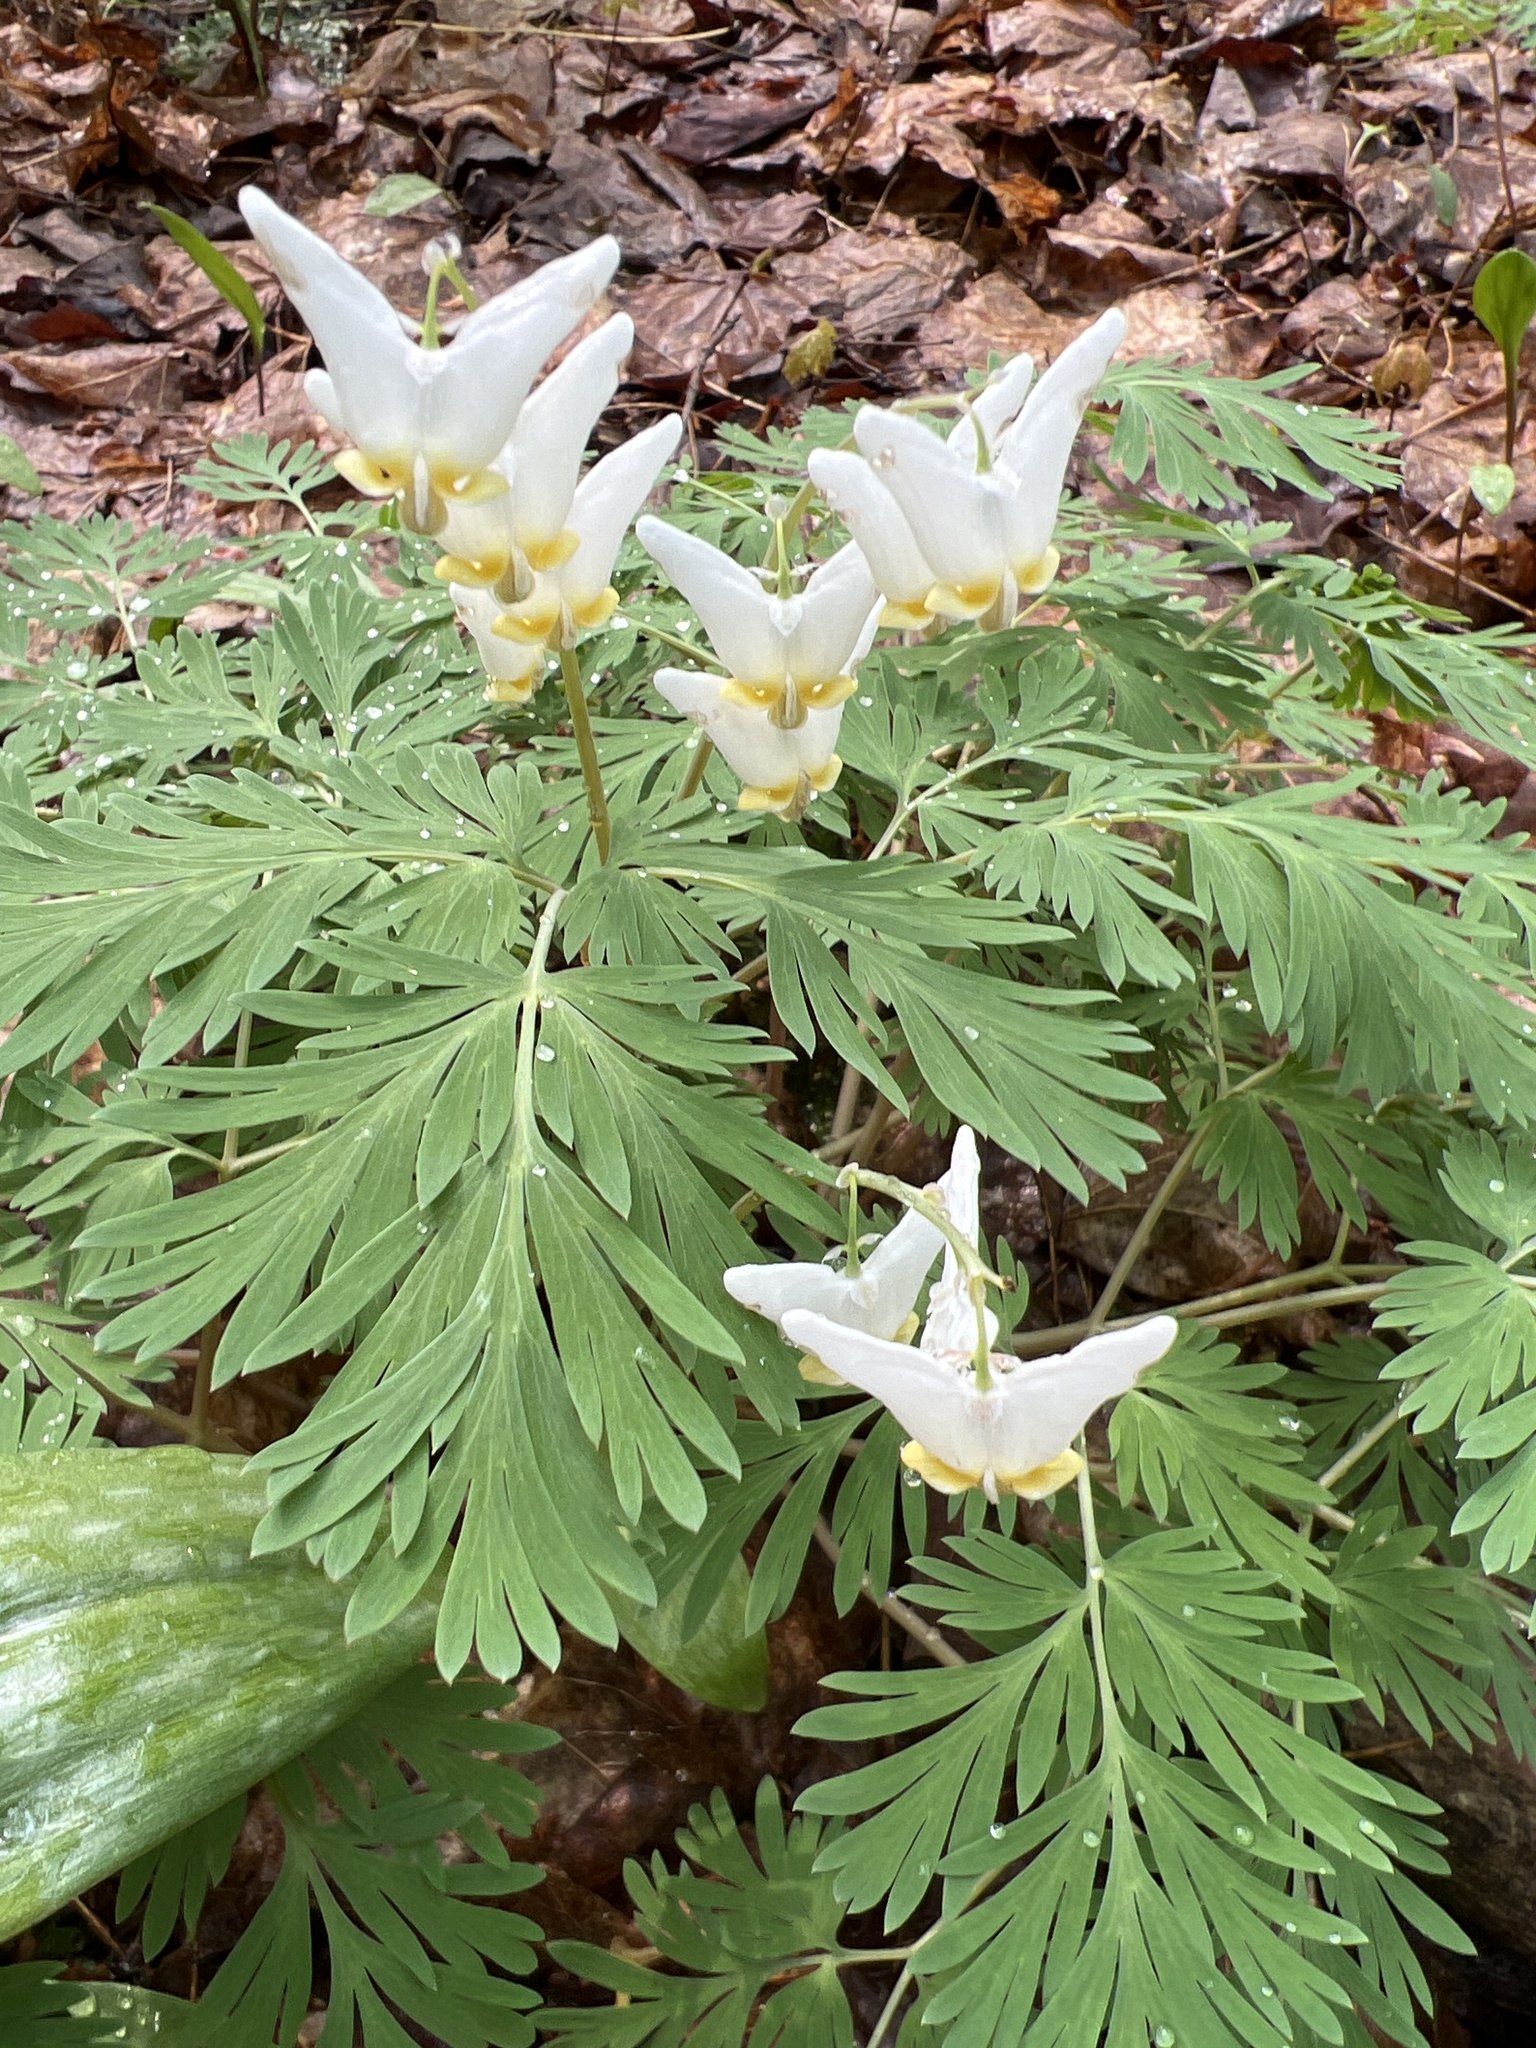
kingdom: Plantae
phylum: Tracheophyta
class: Magnoliopsida
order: Ranunculales
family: Papaveraceae
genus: Dicentra
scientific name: Dicentra cucullaria
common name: Dutchman's breeches
